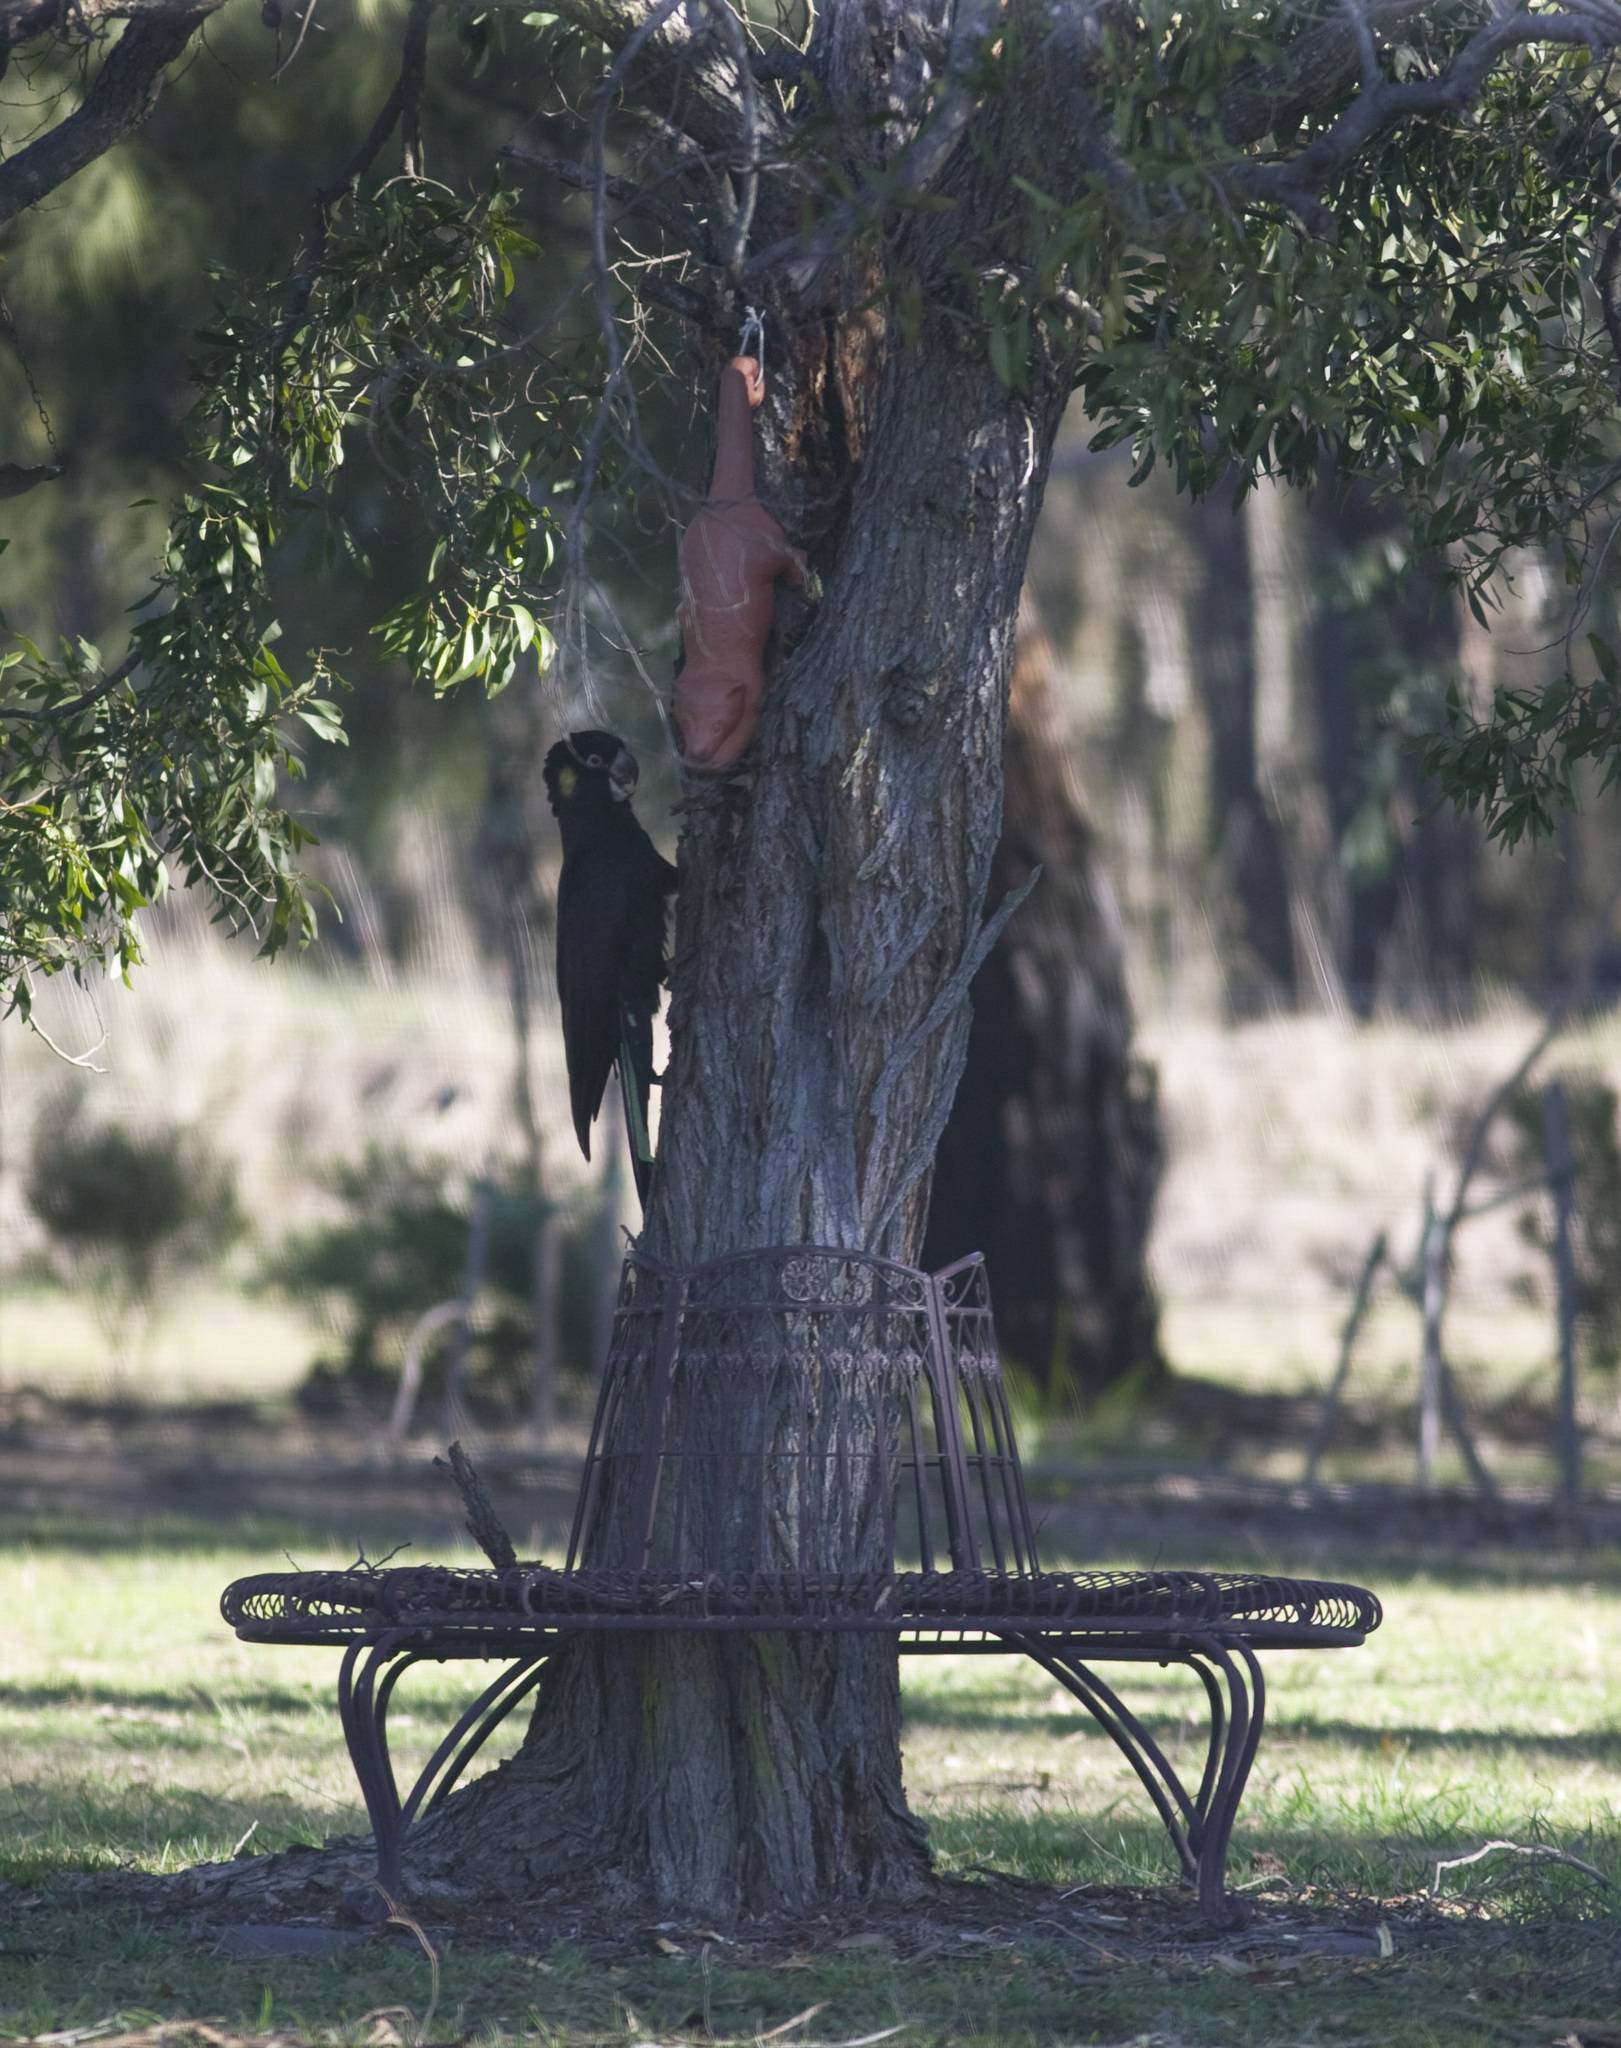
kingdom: Animalia
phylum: Chordata
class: Aves
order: Psittaciformes
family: Cacatuidae
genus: Zanda
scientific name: Zanda funerea
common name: Yellow-tailed black-cockatoo
